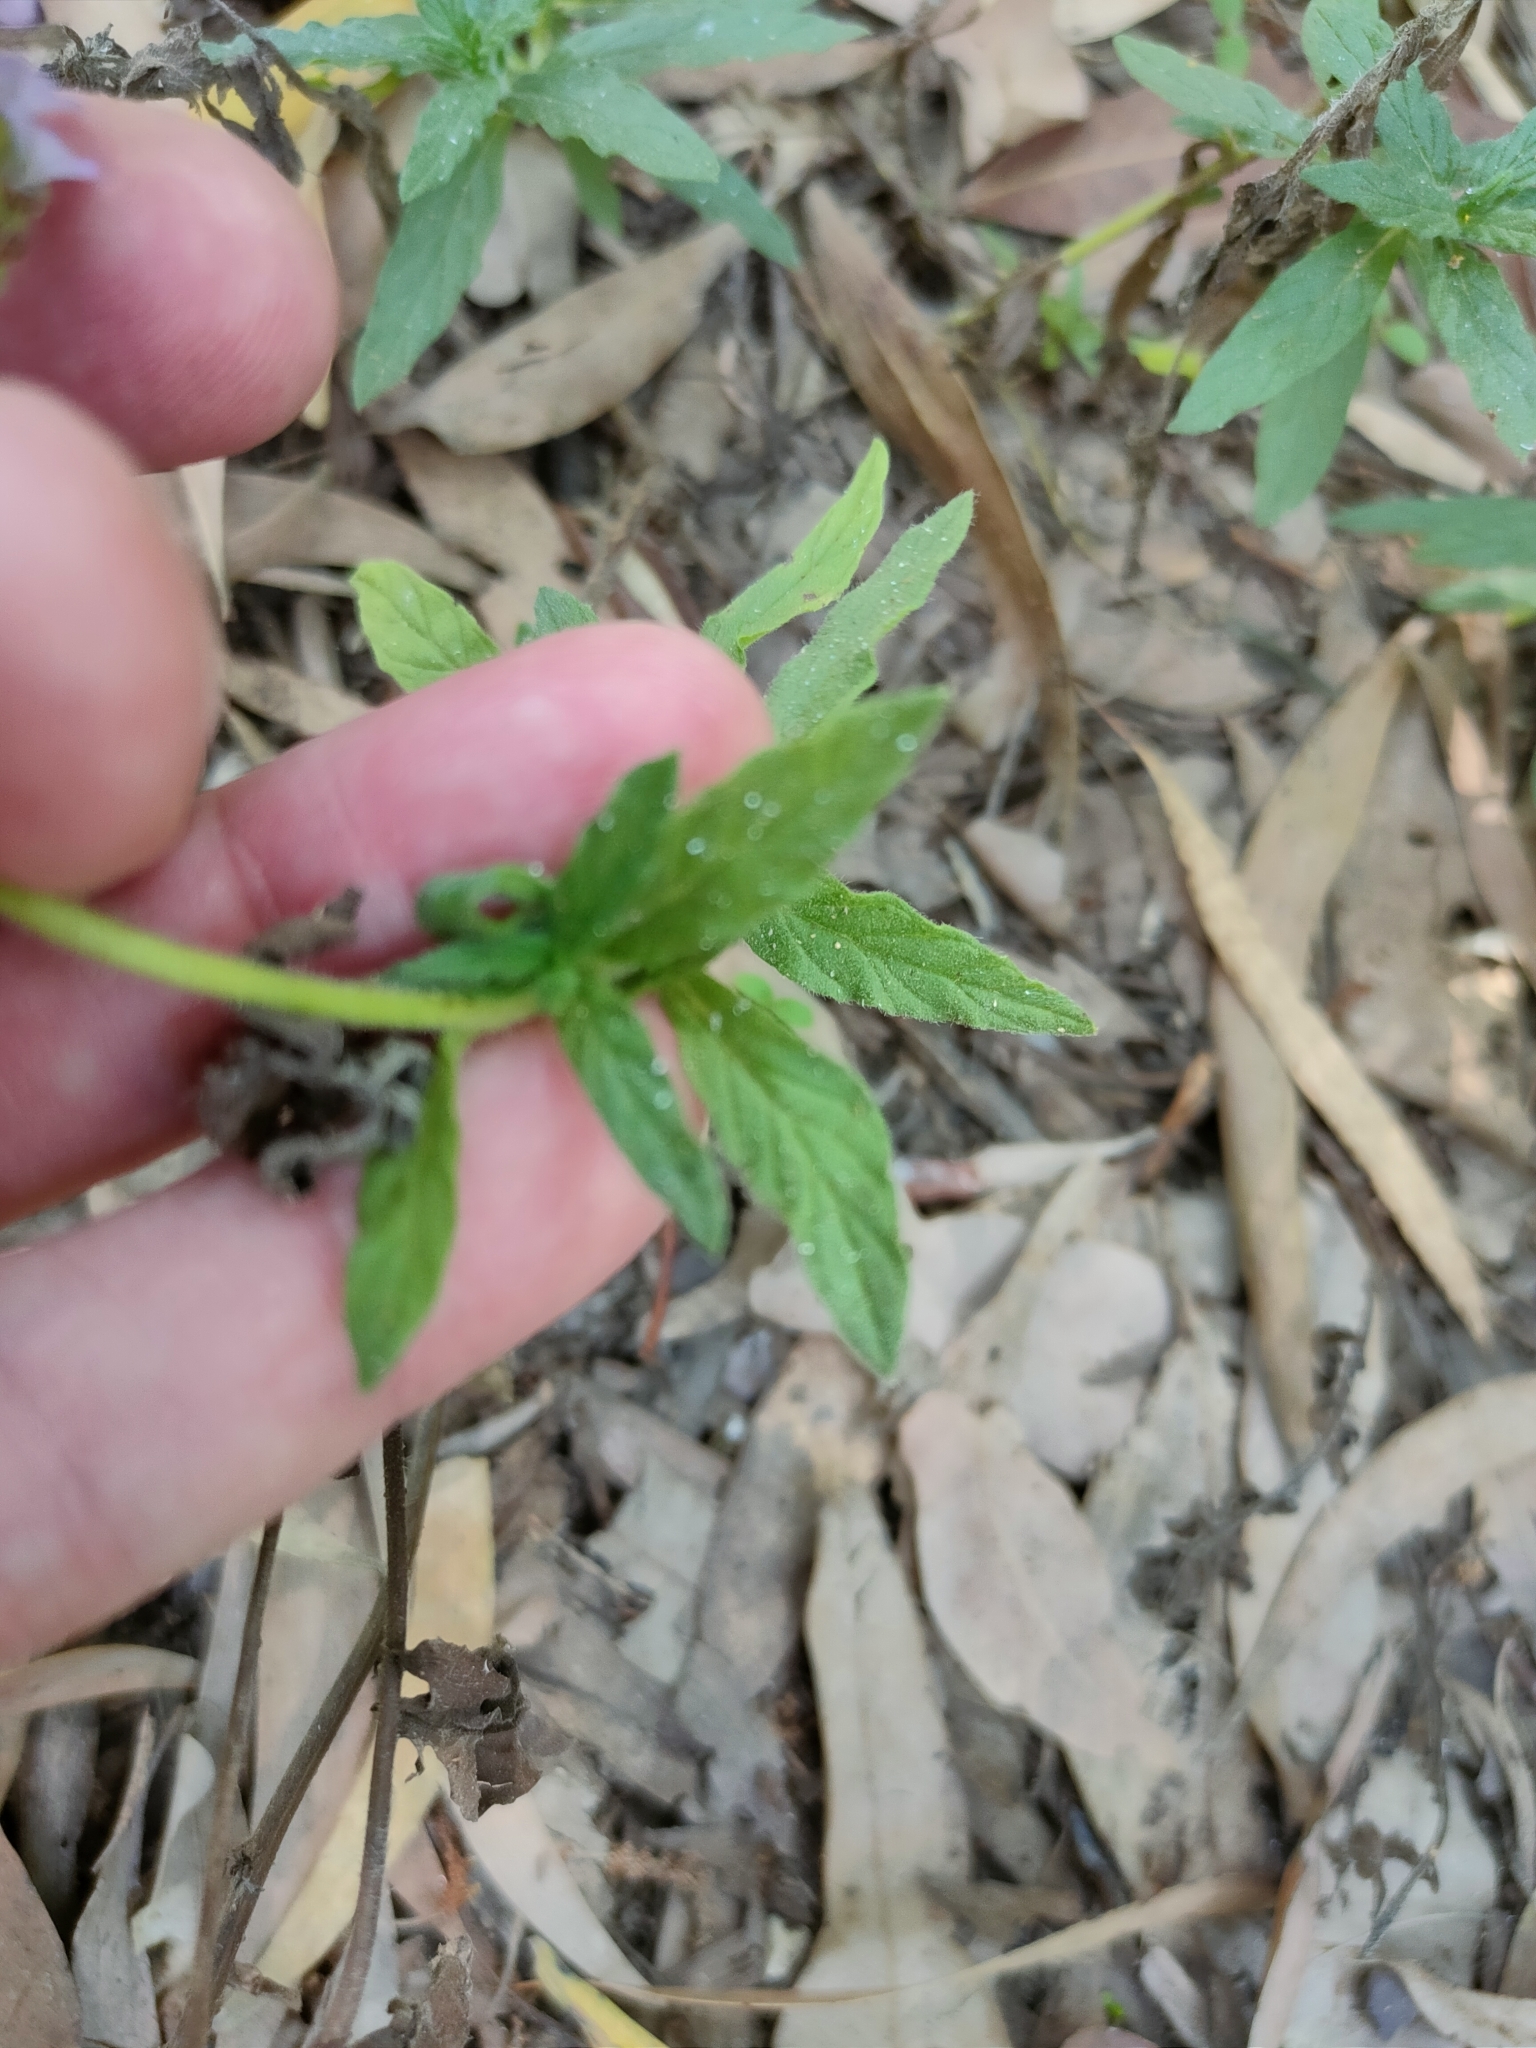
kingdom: Plantae
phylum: Tracheophyta
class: Magnoliopsida
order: Boraginales
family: Heliotropiaceae
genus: Heliotropium
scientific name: Heliotropium amplexicaule
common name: Clasping heliotrope
